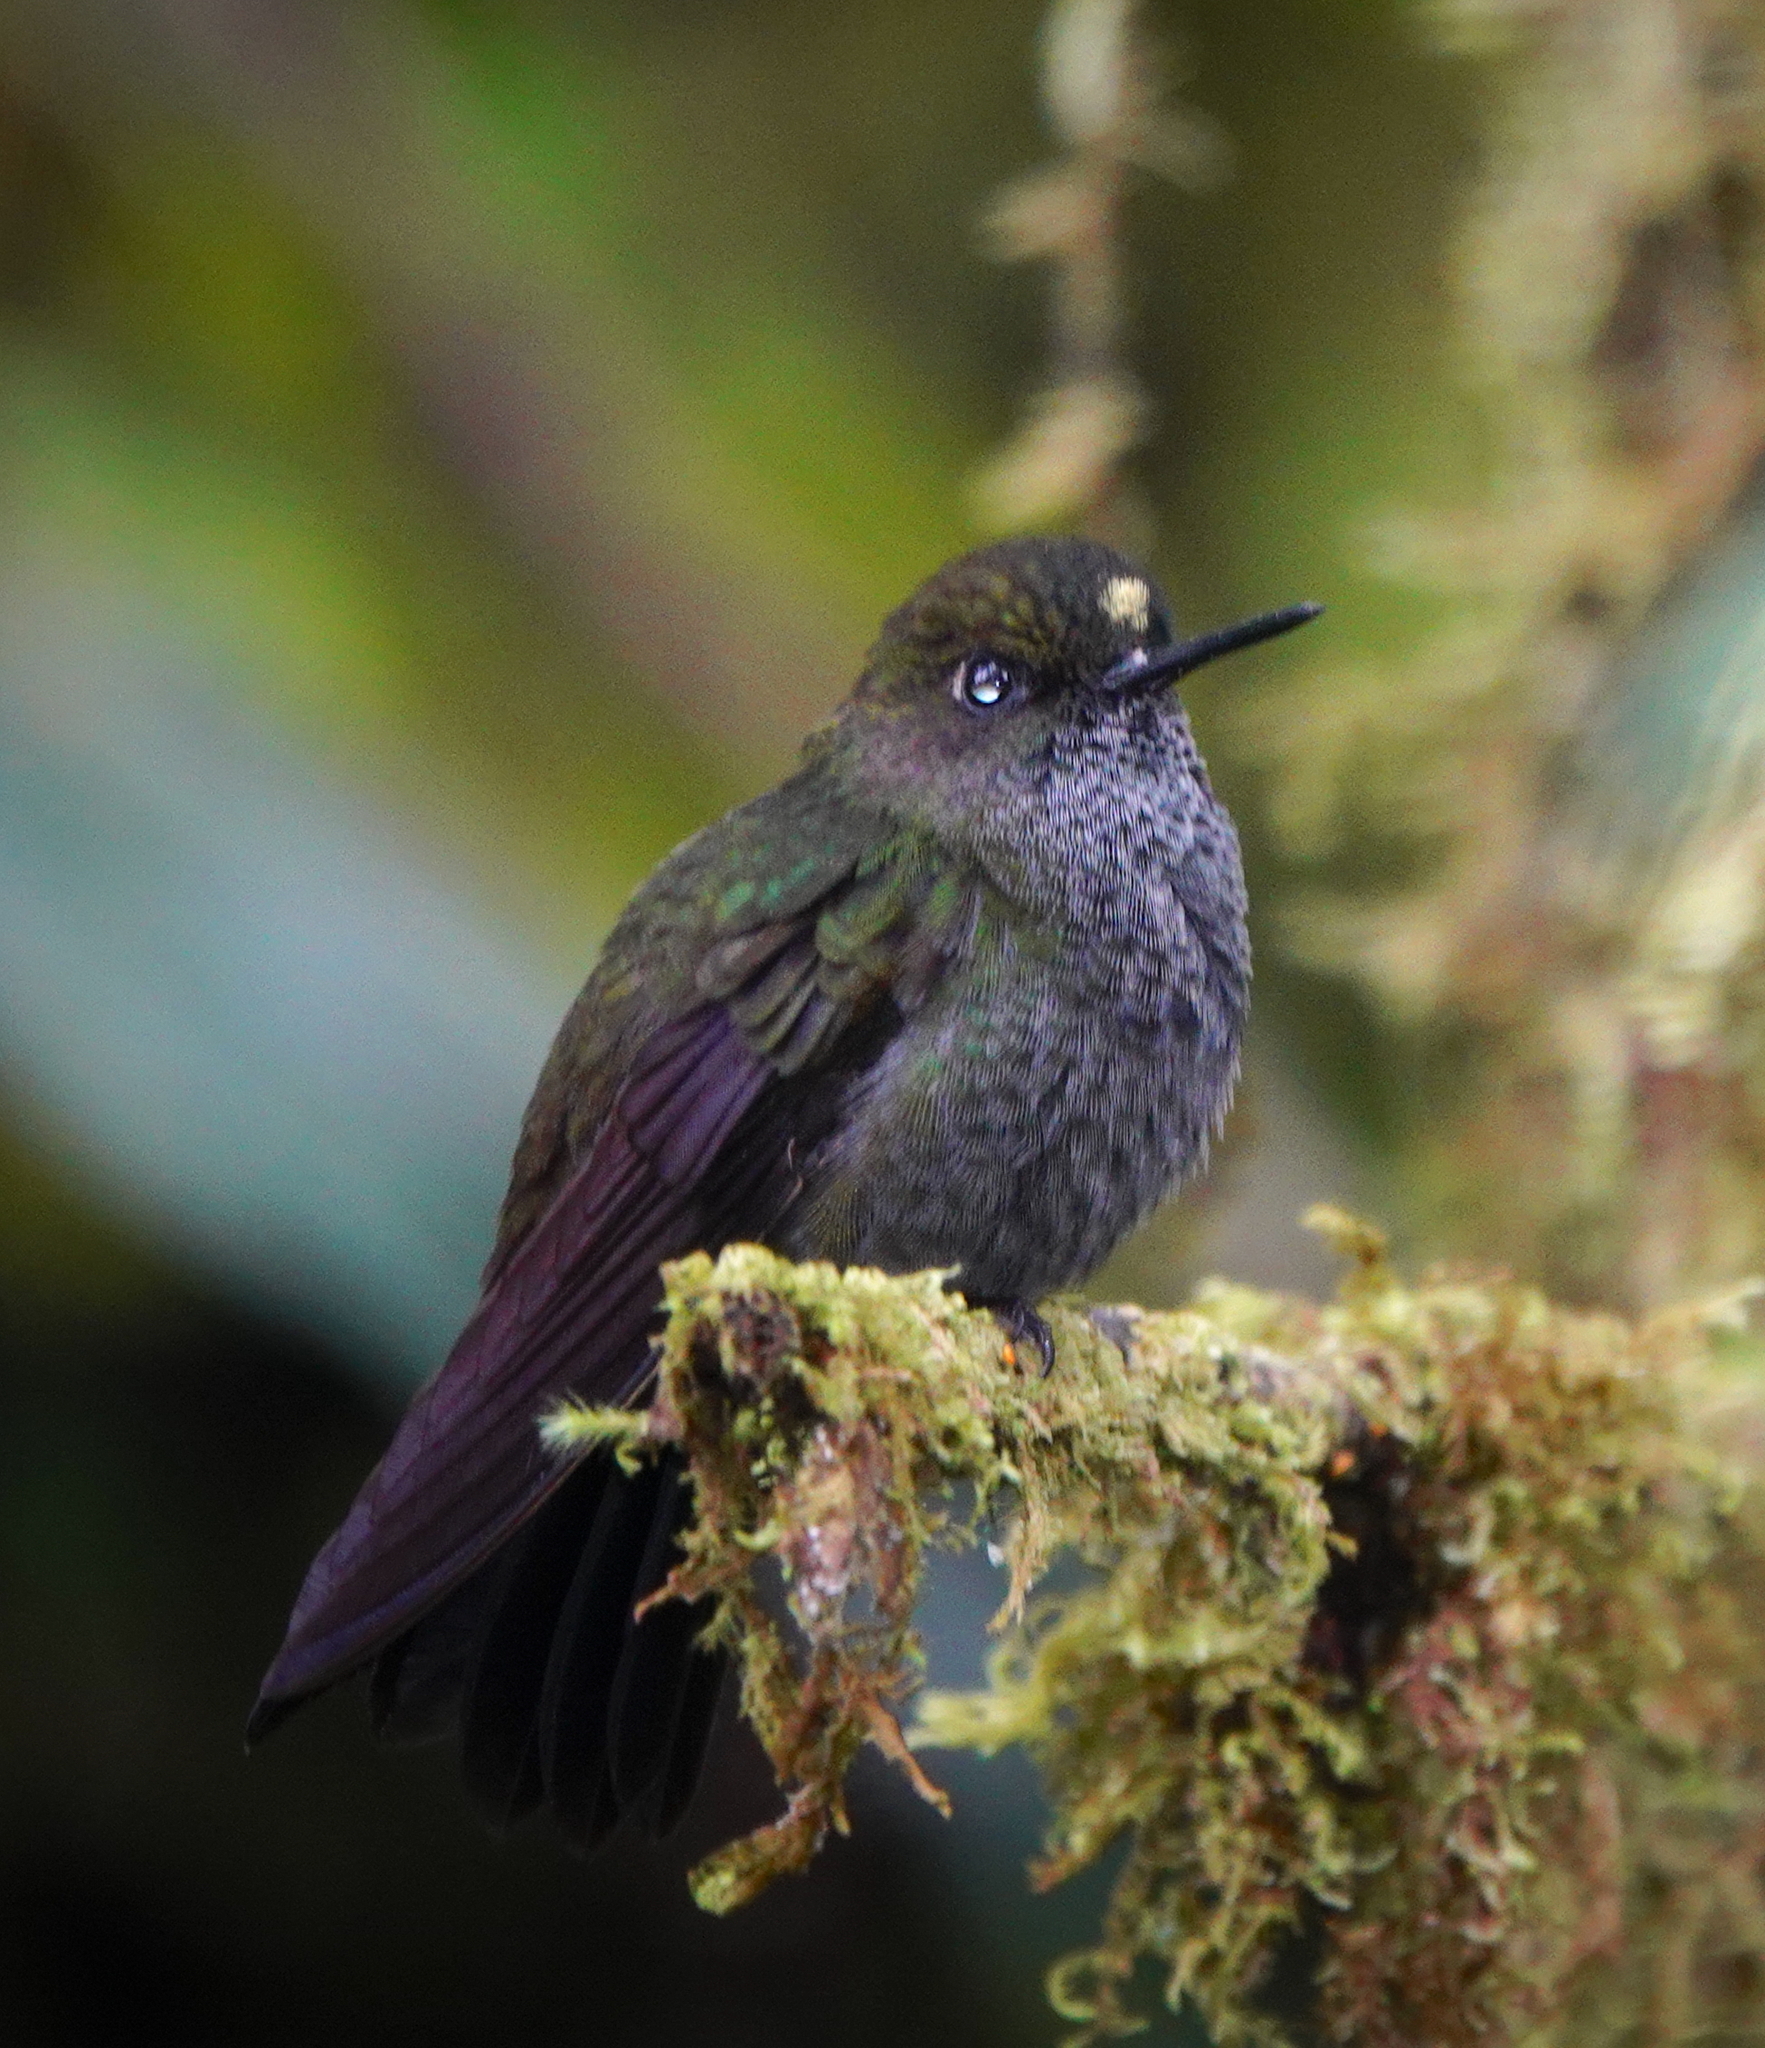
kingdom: Animalia
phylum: Chordata
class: Aves
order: Apodiformes
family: Trochilidae
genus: Haplophaedia
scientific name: Haplophaedia lugens
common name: Hoary puffleg
